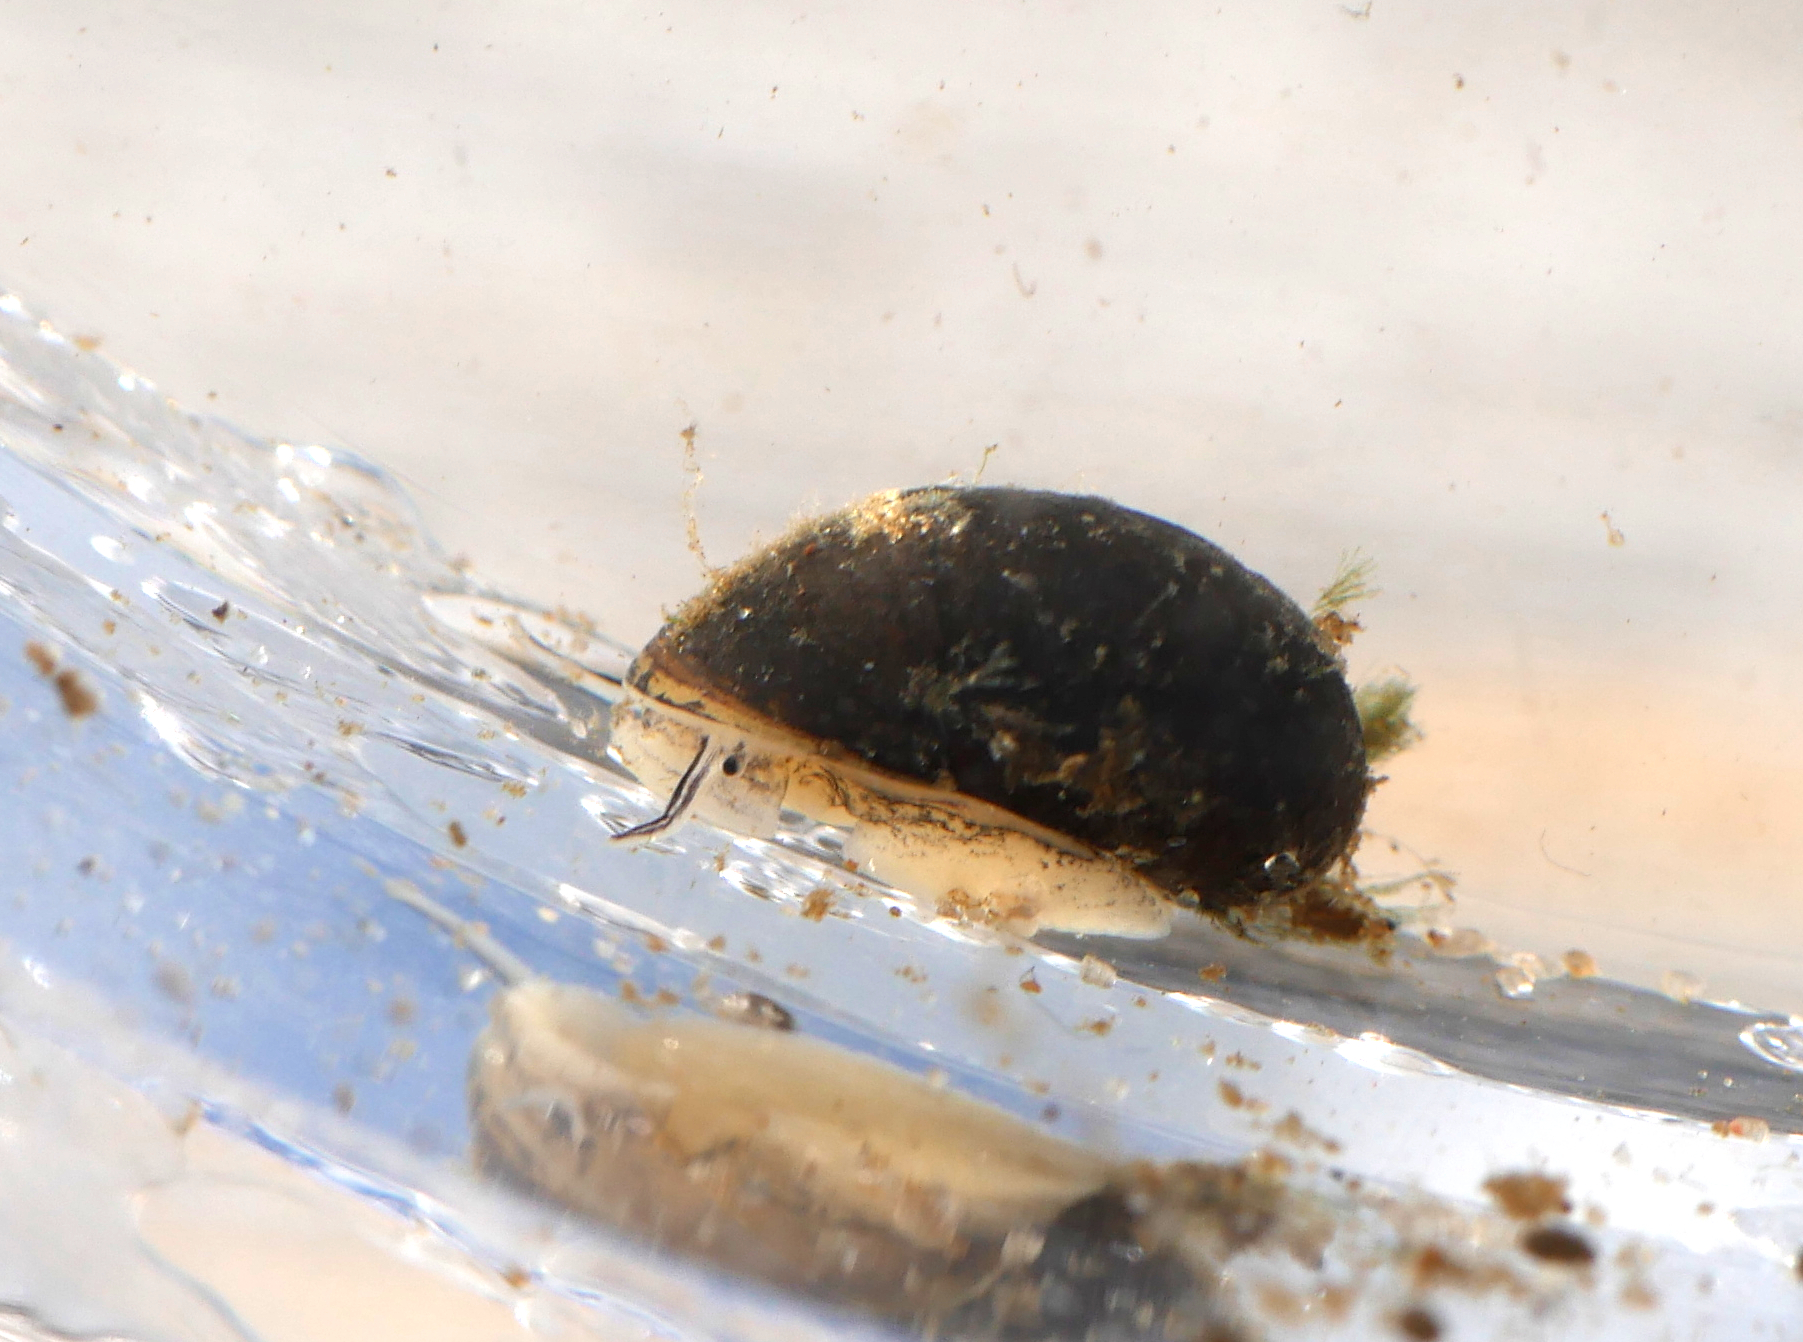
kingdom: Animalia
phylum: Mollusca
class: Gastropoda
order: Cycloneritida
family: Neritidae
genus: Theodoxus
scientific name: Theodoxus fluviatilis
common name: River nerite
